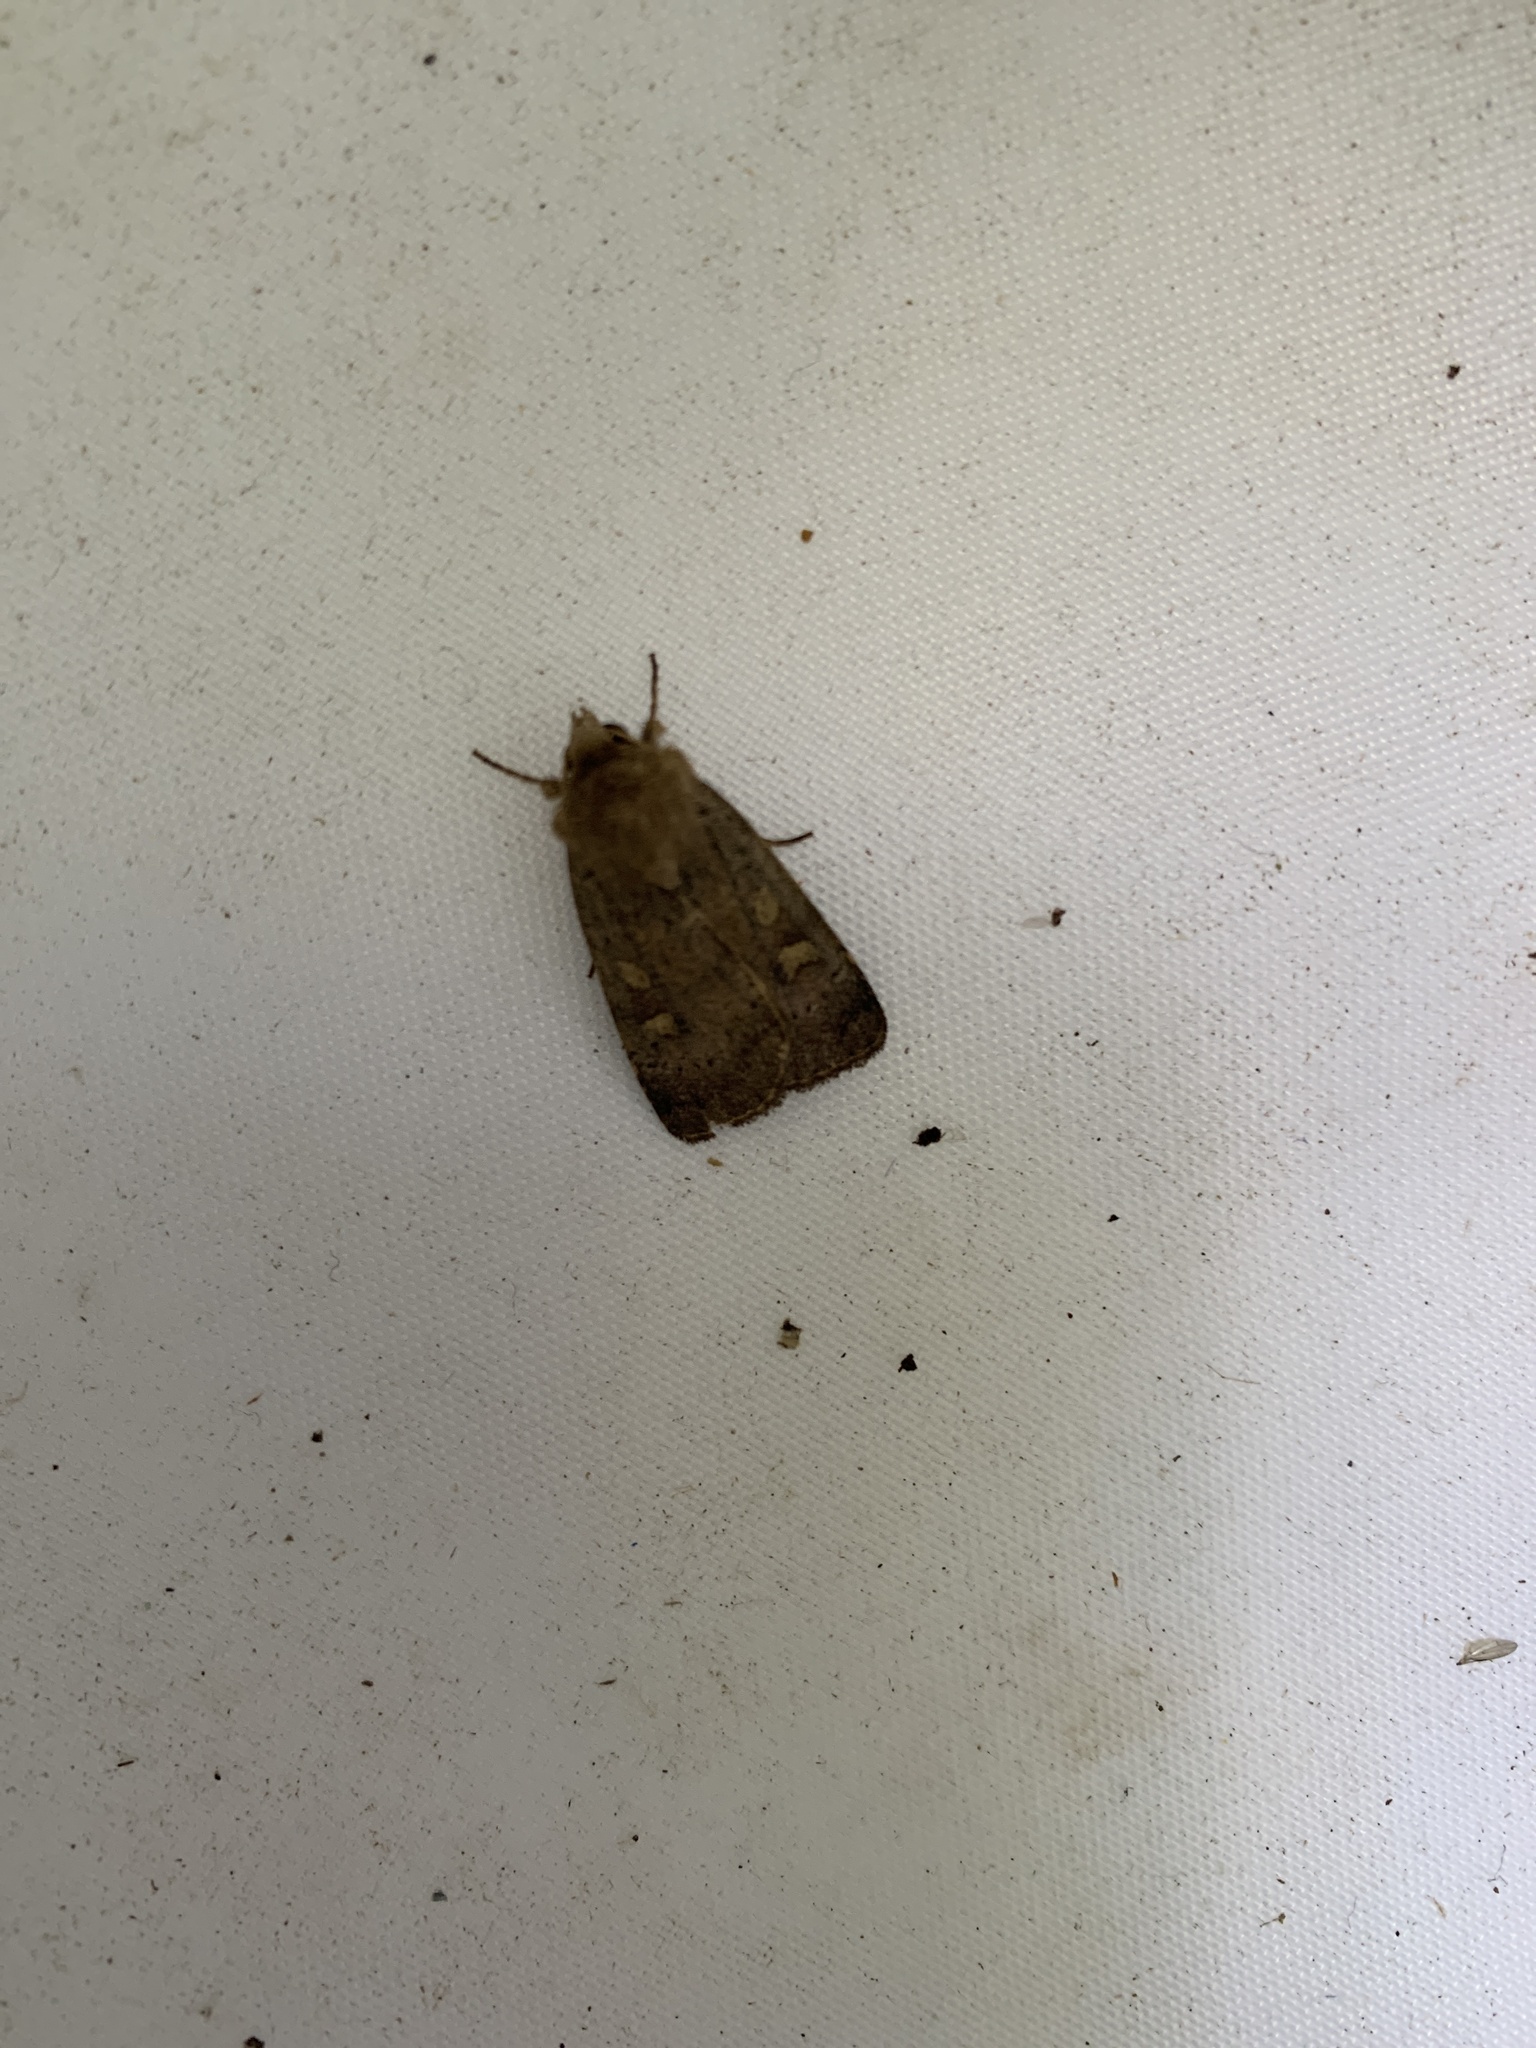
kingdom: Animalia
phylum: Arthropoda
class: Insecta
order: Lepidoptera
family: Noctuidae
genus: Xestia
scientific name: Xestia xanthographa
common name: Square-spot rustic
